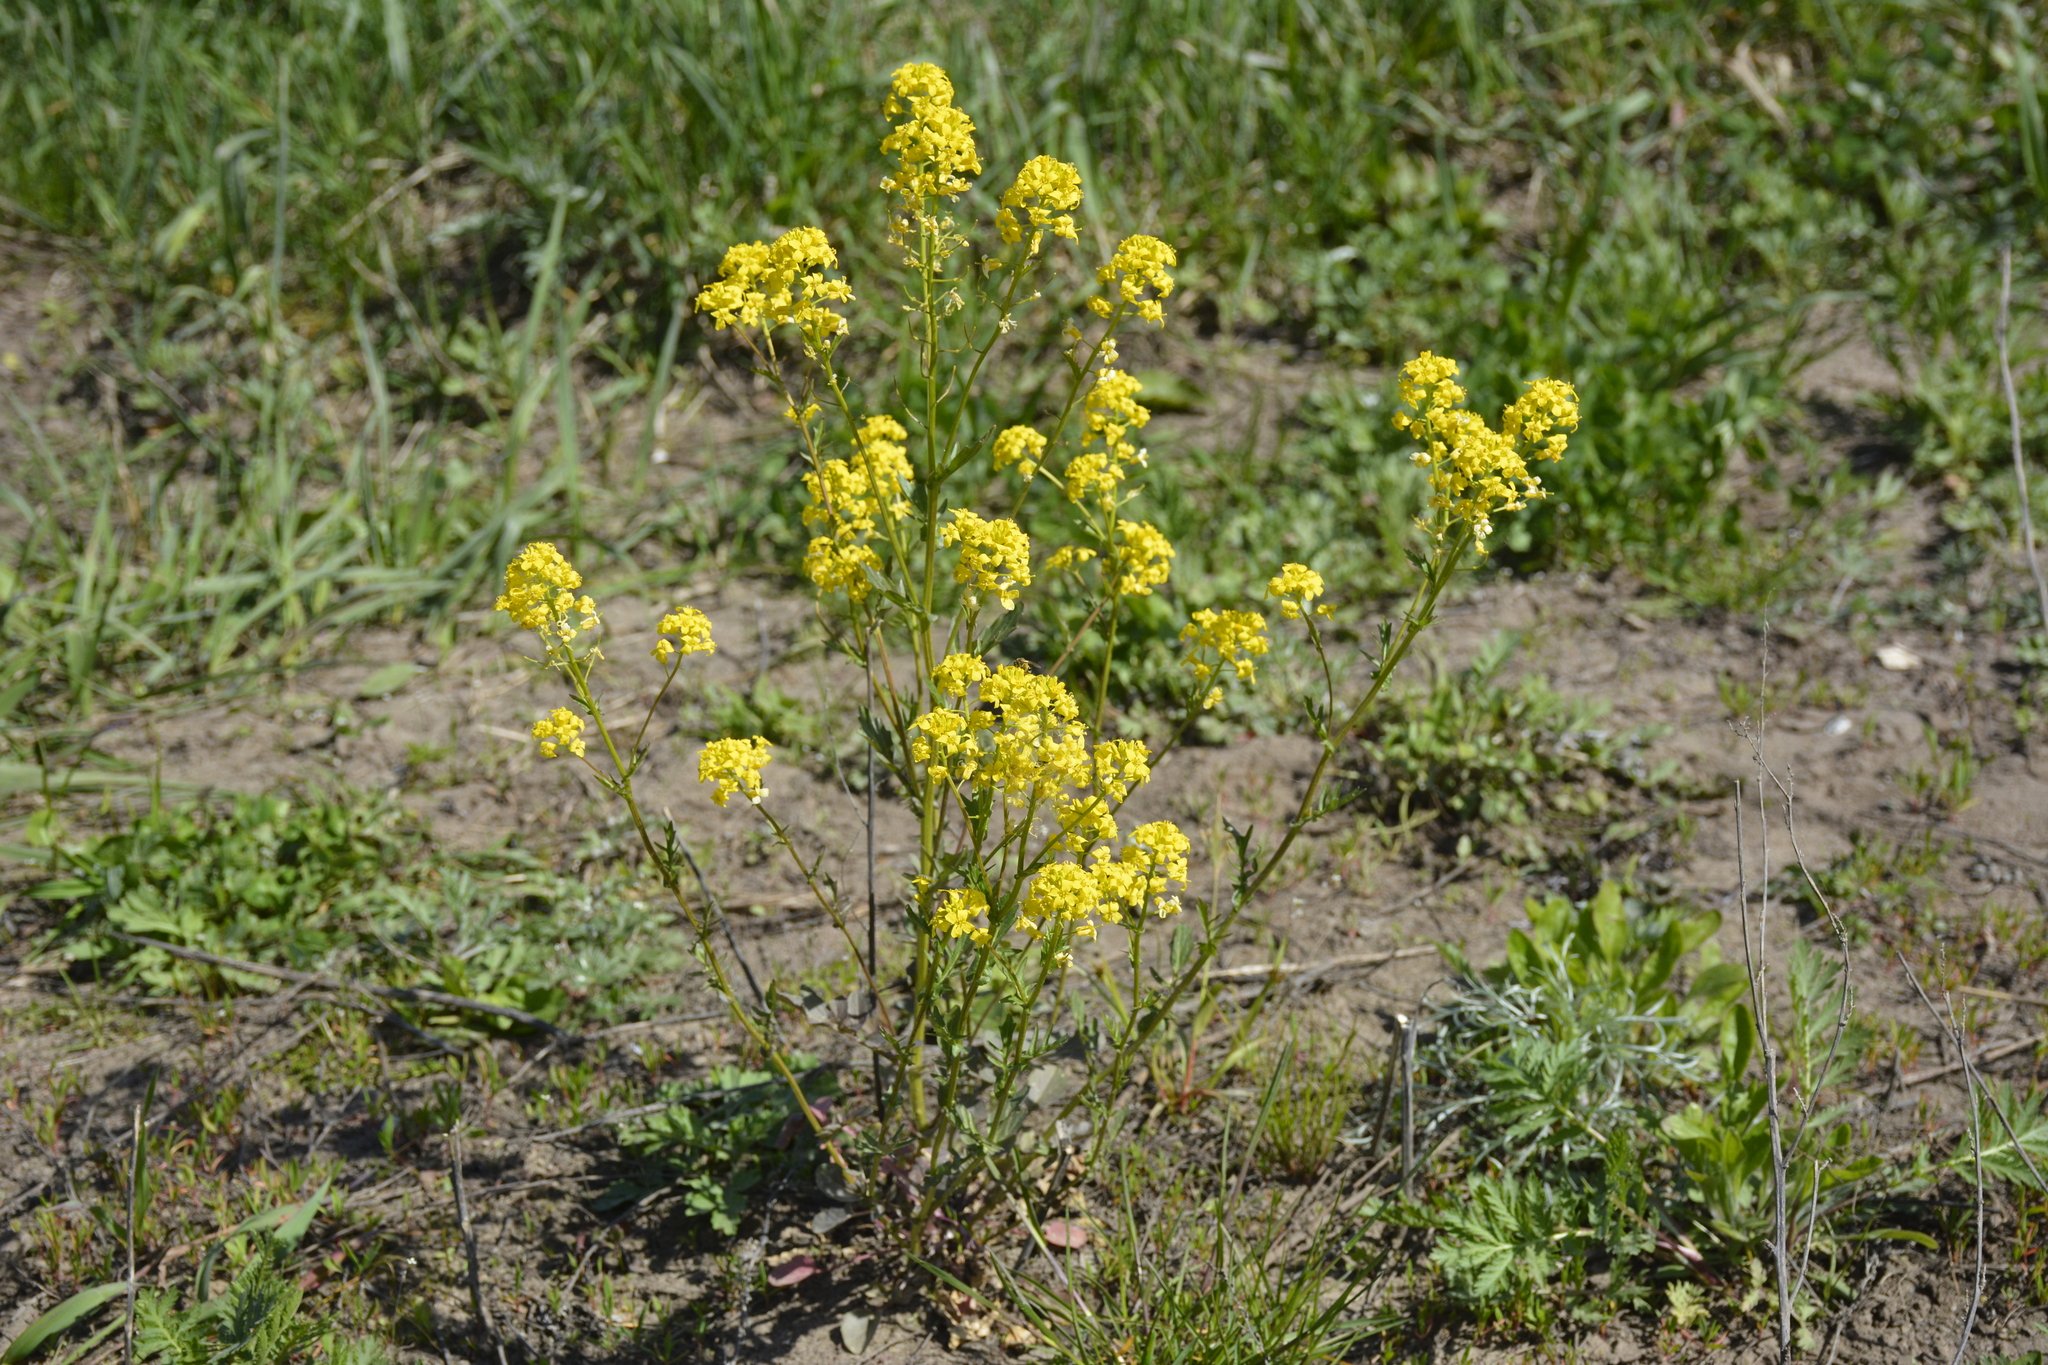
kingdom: Plantae
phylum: Tracheophyta
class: Magnoliopsida
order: Brassicales
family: Brassicaceae
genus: Barbarea
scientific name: Barbarea vulgaris
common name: Cressy-greens
